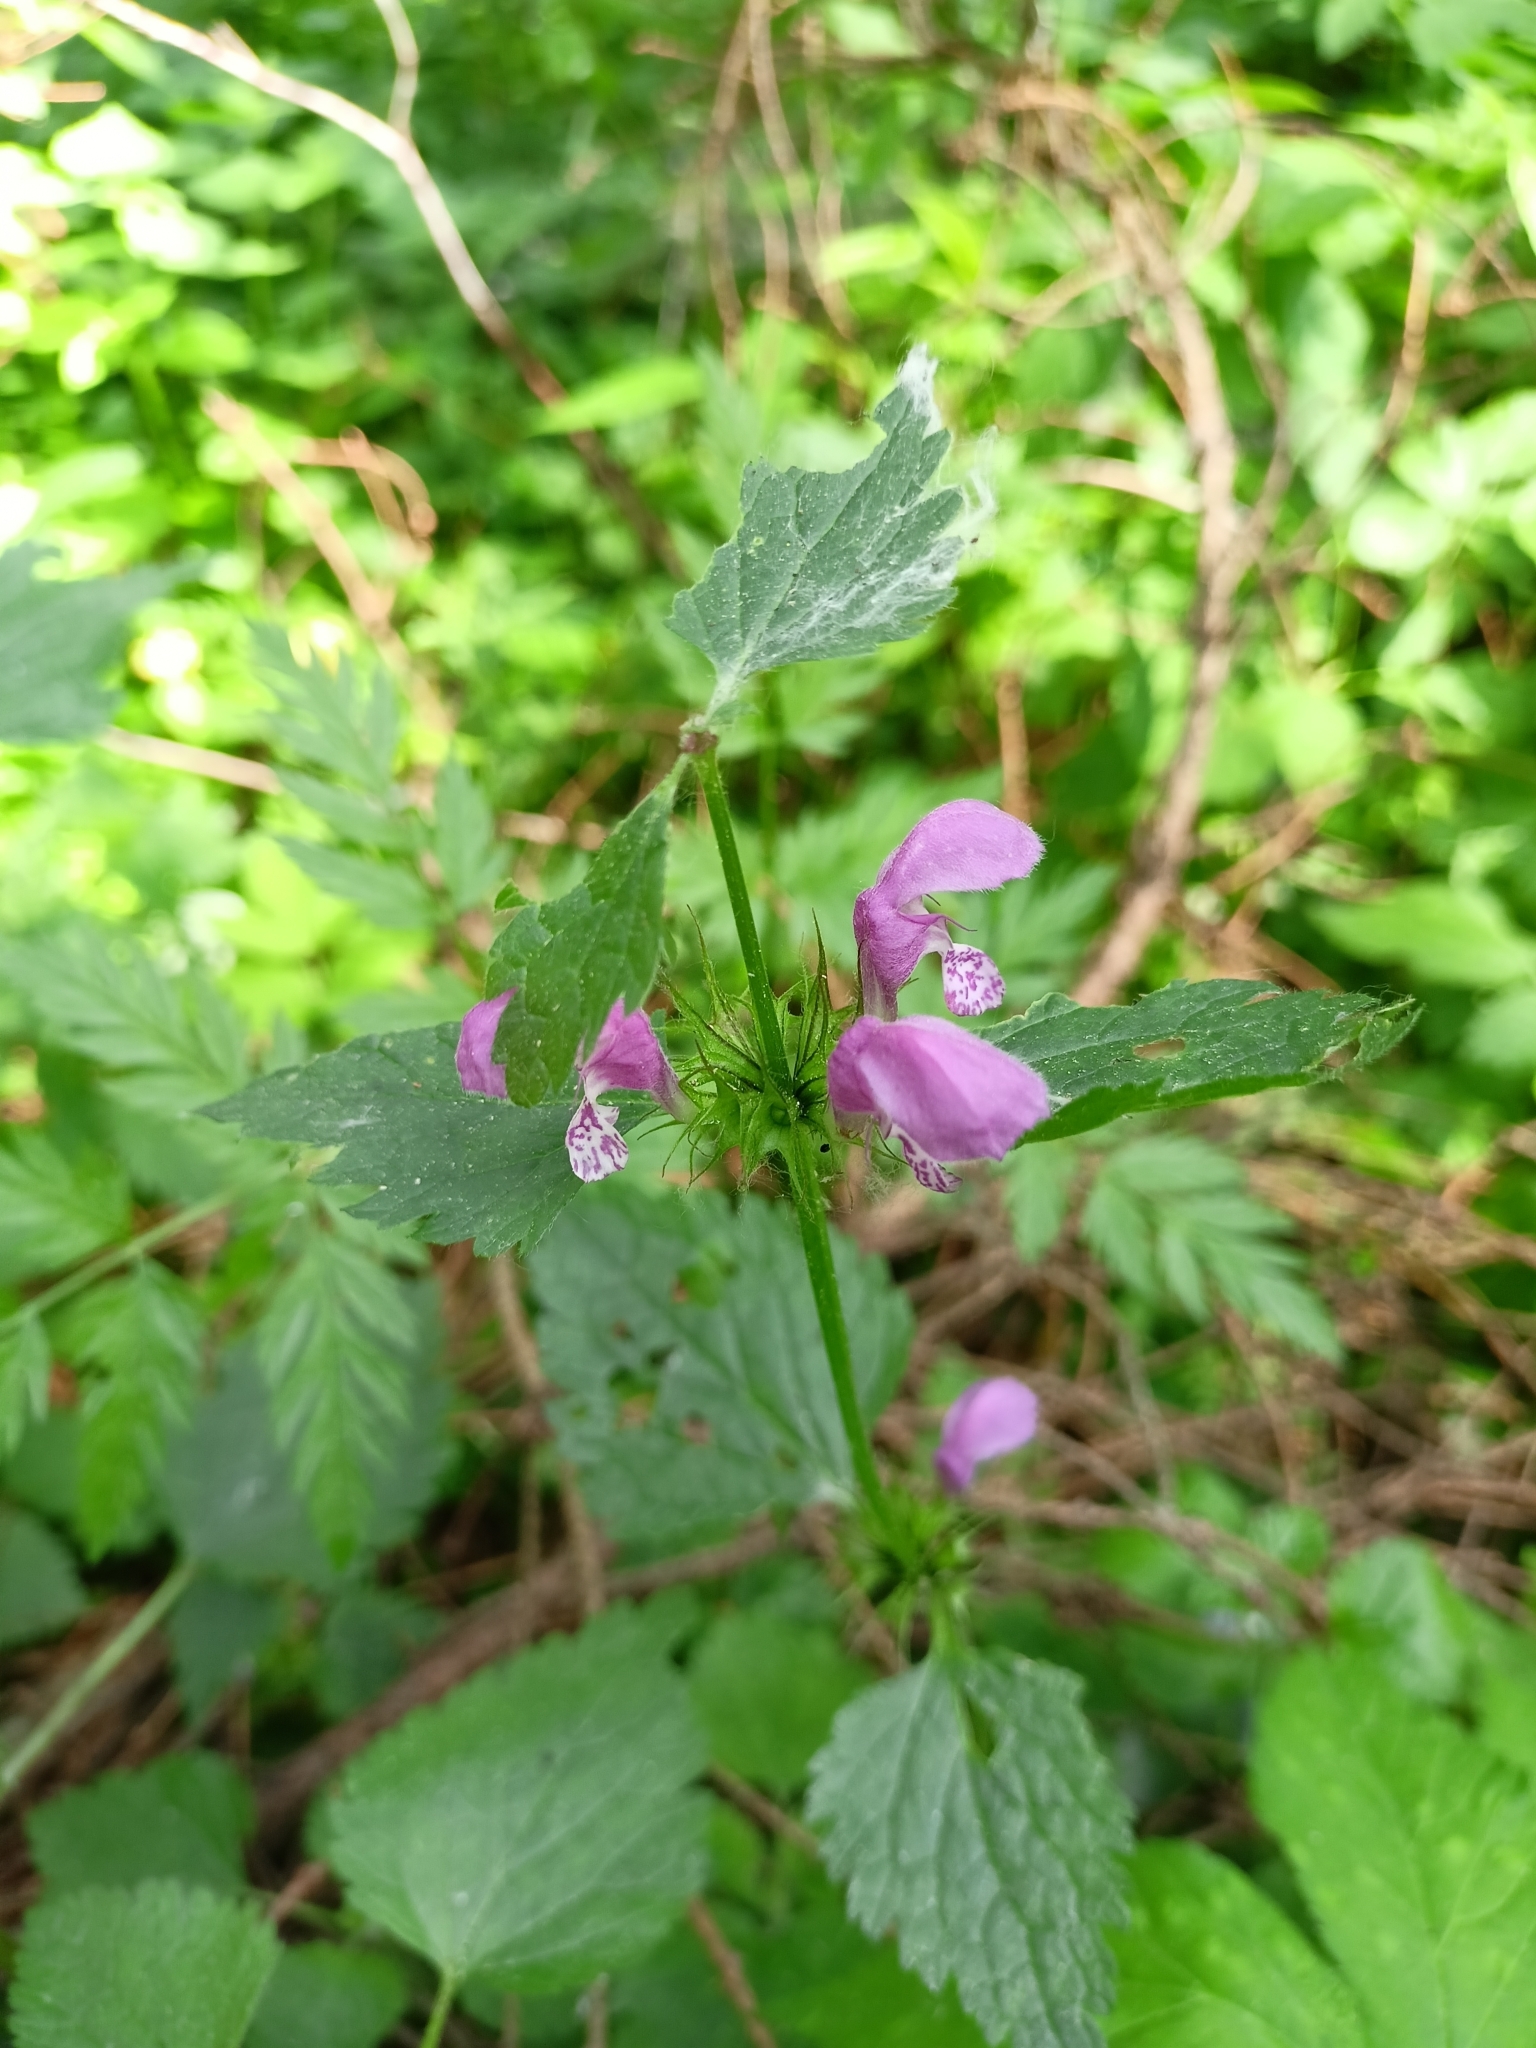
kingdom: Plantae
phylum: Tracheophyta
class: Magnoliopsida
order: Lamiales
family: Lamiaceae
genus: Lamium
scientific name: Lamium maculatum
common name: Spotted dead-nettle
